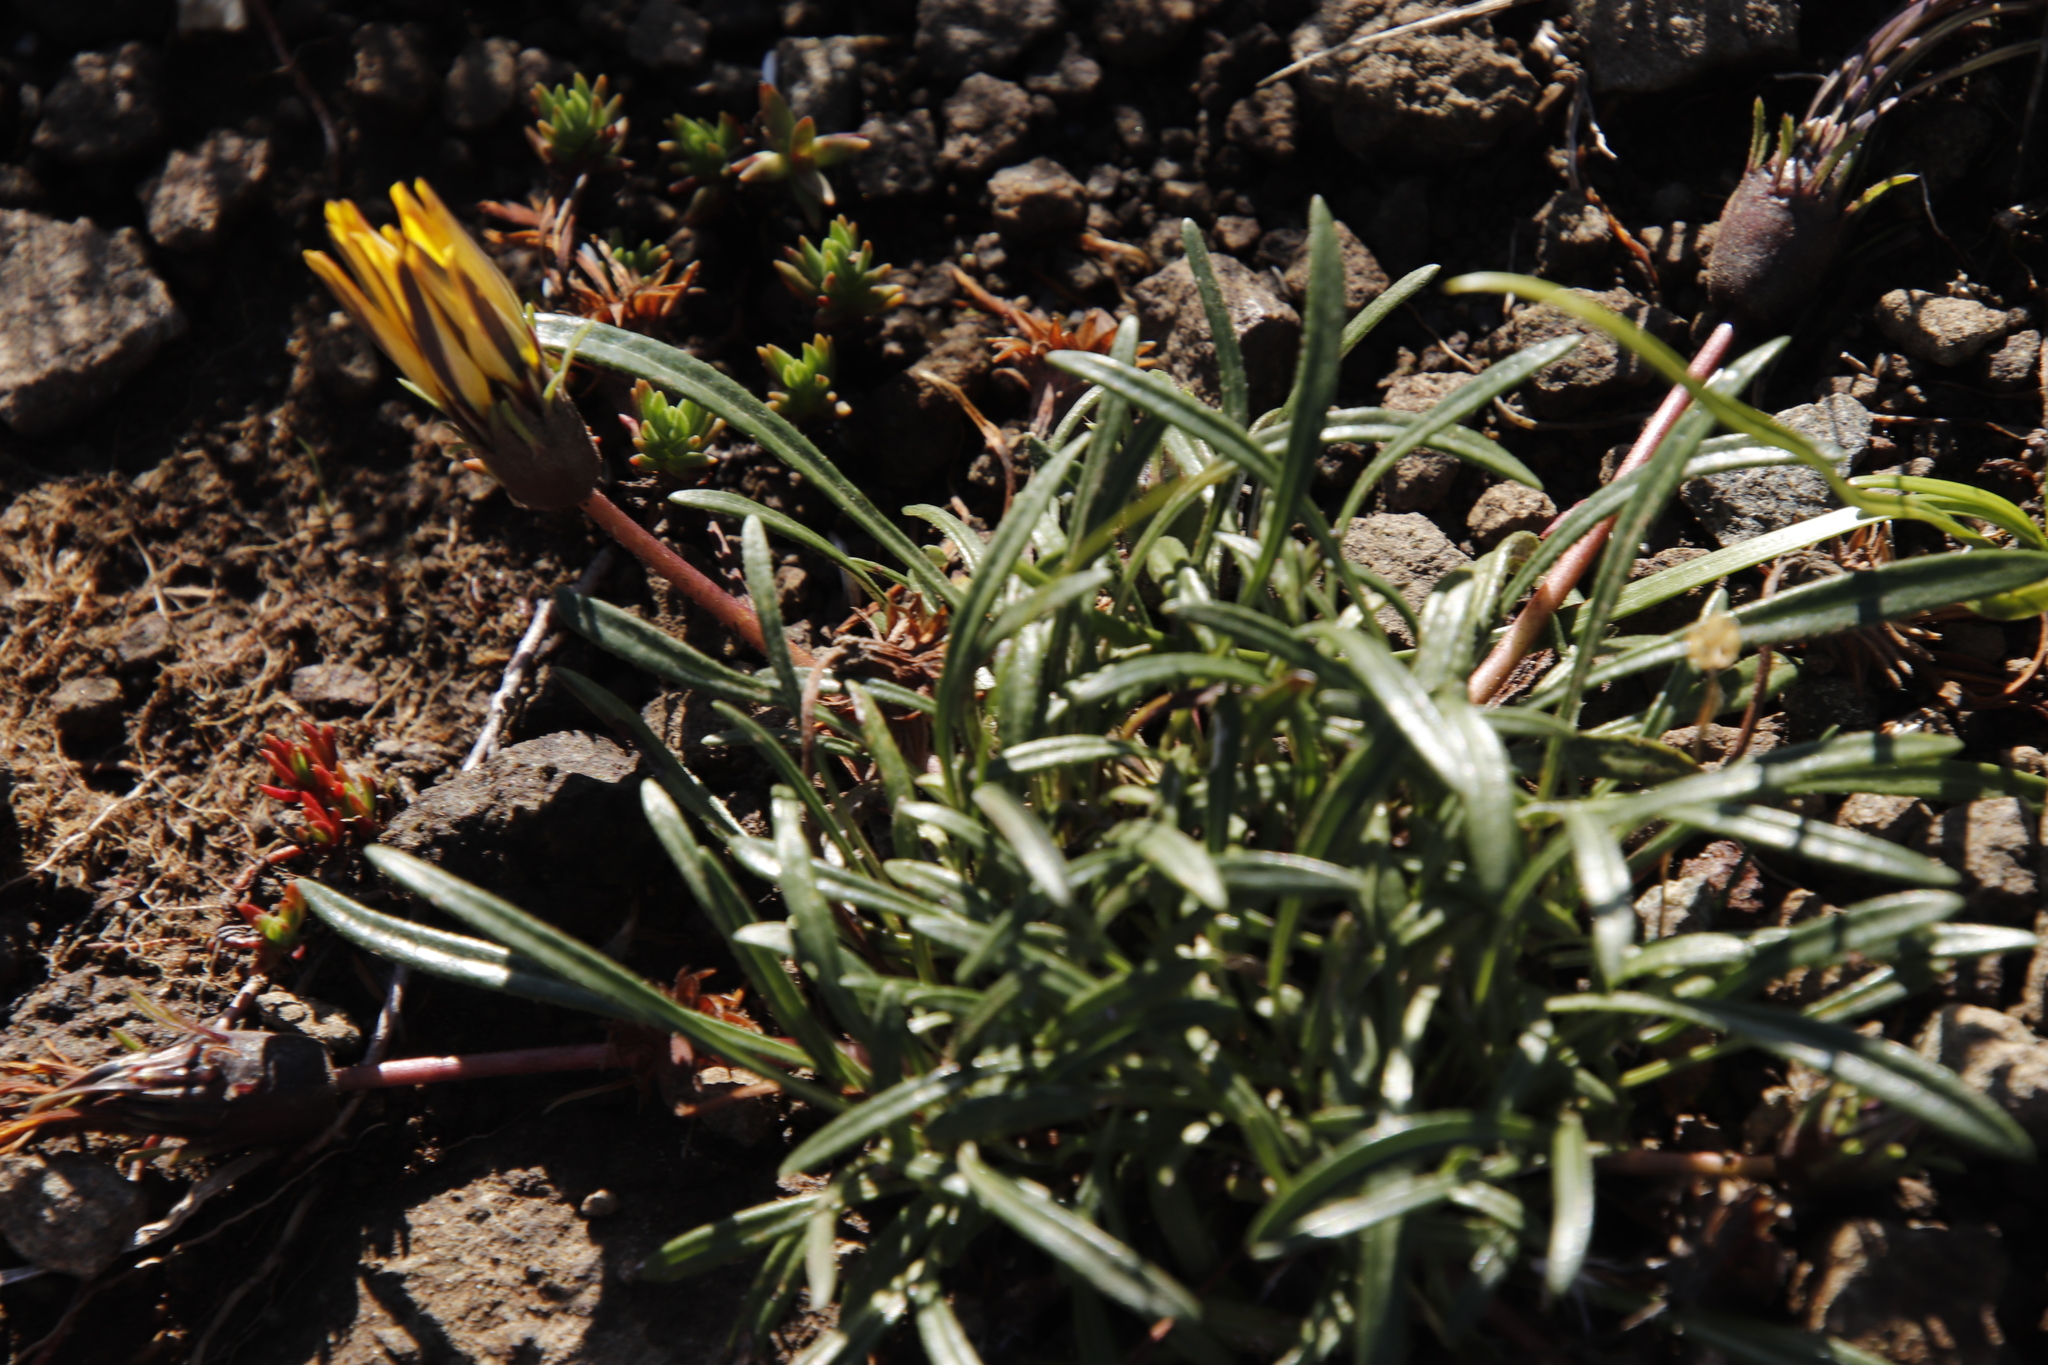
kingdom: Plantae
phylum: Tracheophyta
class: Magnoliopsida
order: Asterales
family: Asteraceae
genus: Gazania
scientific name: Gazania krebsiana
